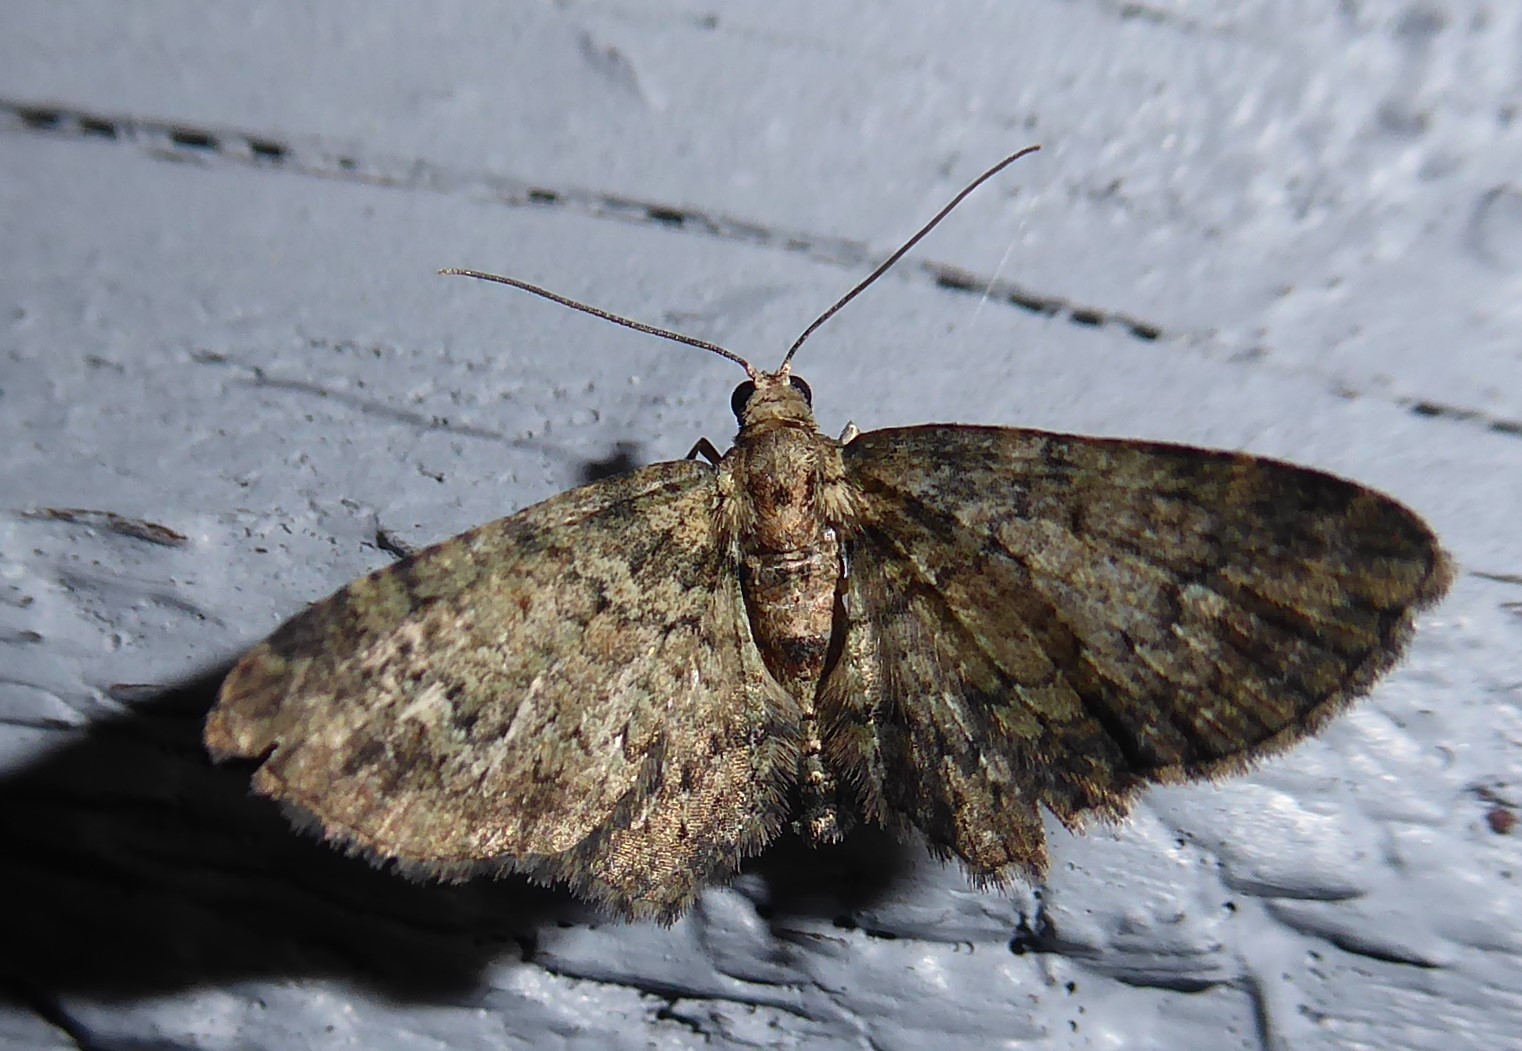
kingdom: Animalia
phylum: Arthropoda
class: Insecta
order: Lepidoptera
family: Geometridae
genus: Pasiphilodes
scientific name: Pasiphilodes testulata
